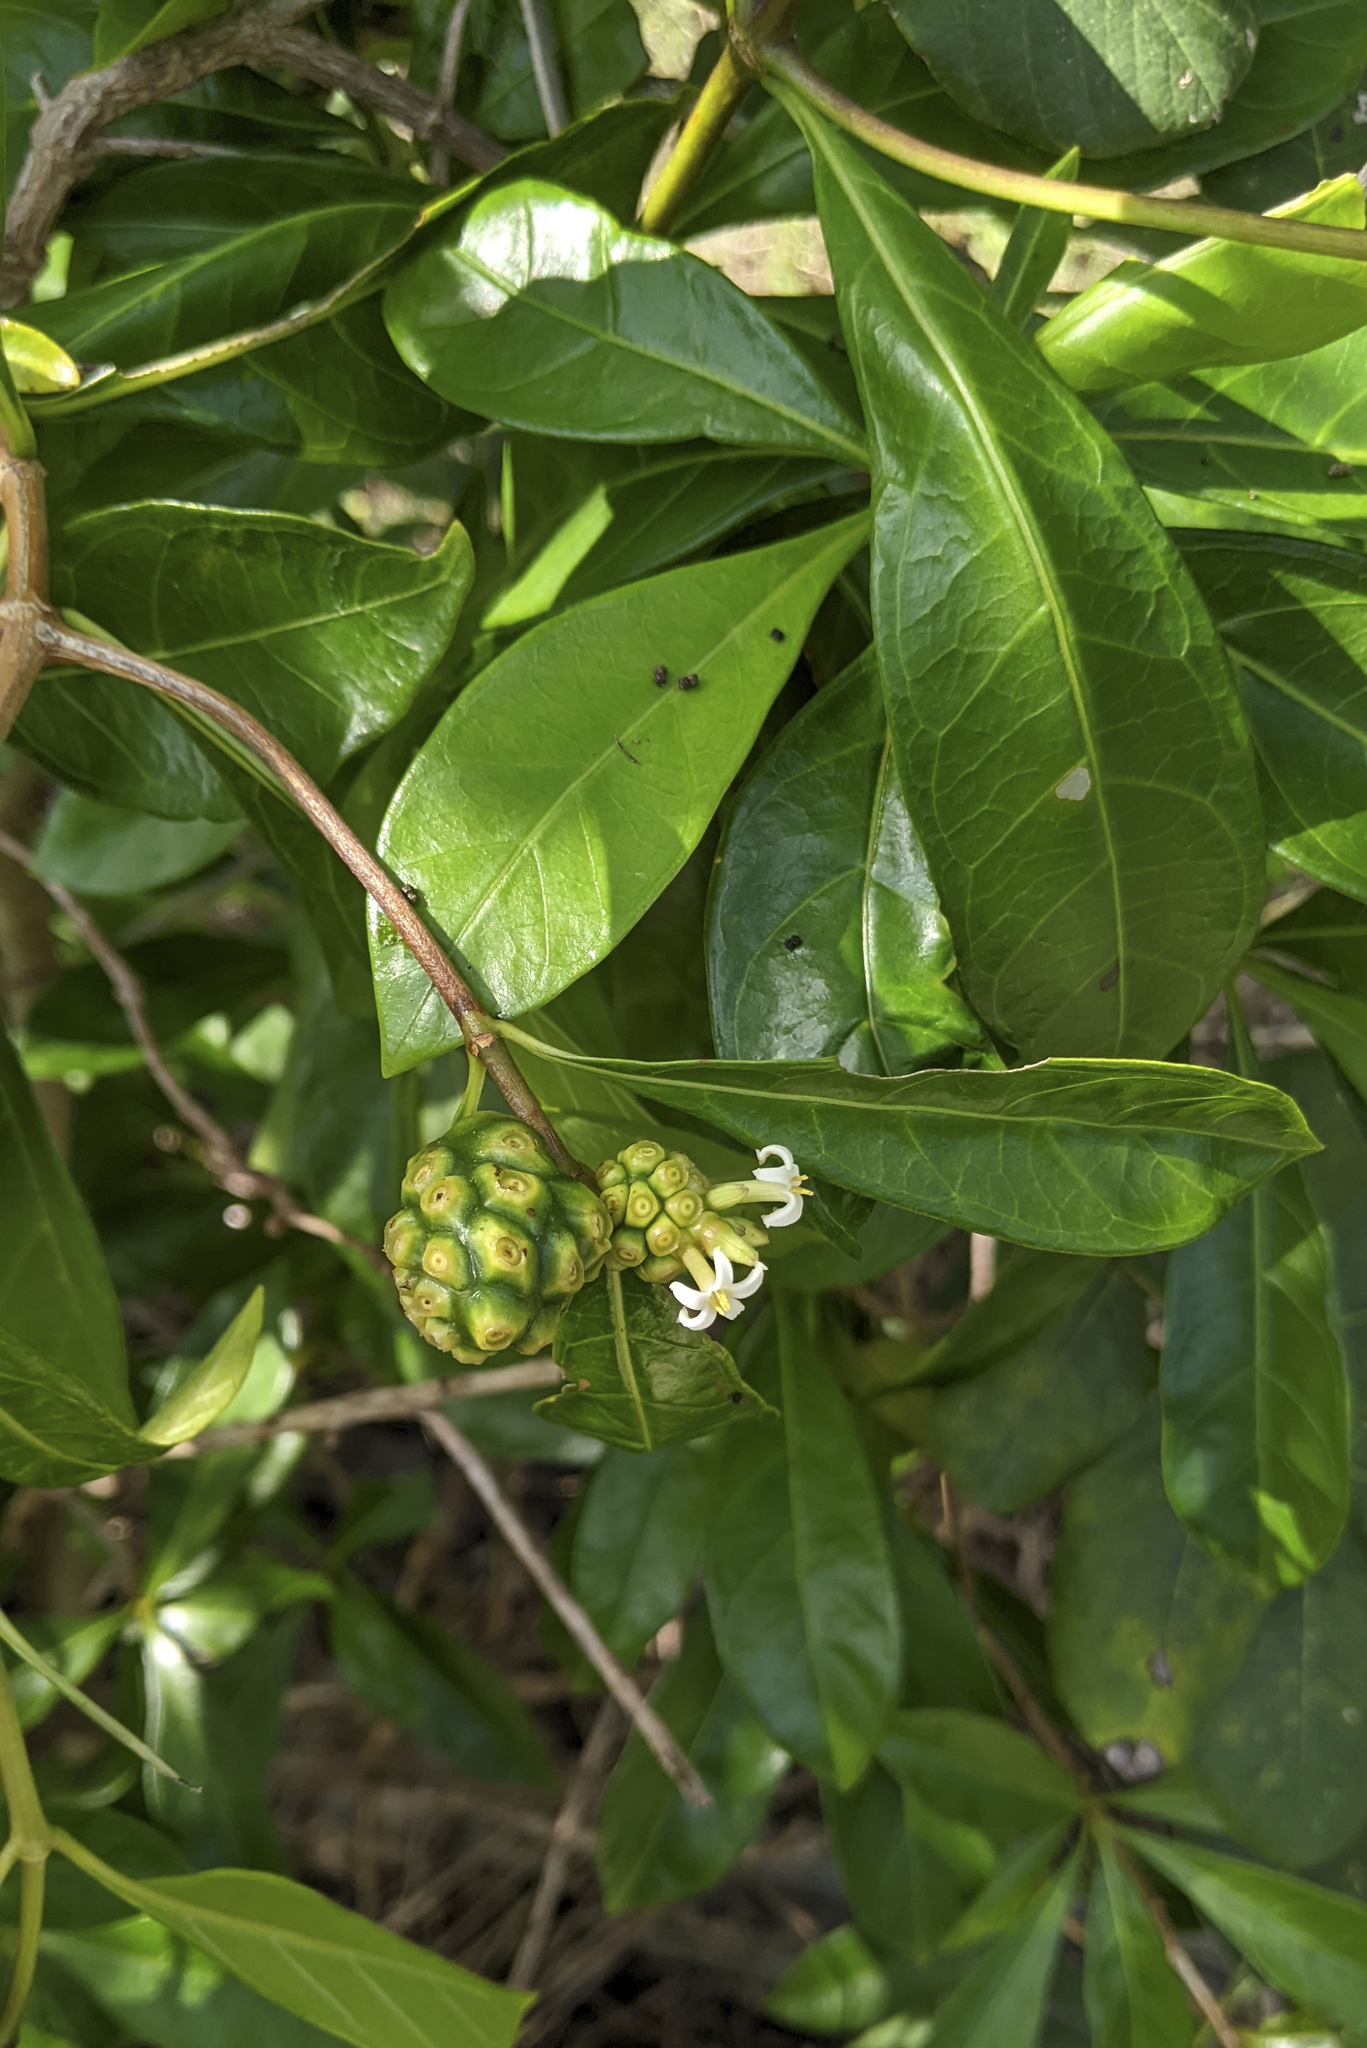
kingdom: Plantae
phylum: Tracheophyta
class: Magnoliopsida
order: Gentianales
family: Rubiaceae
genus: Morinda
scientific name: Morinda royoc
